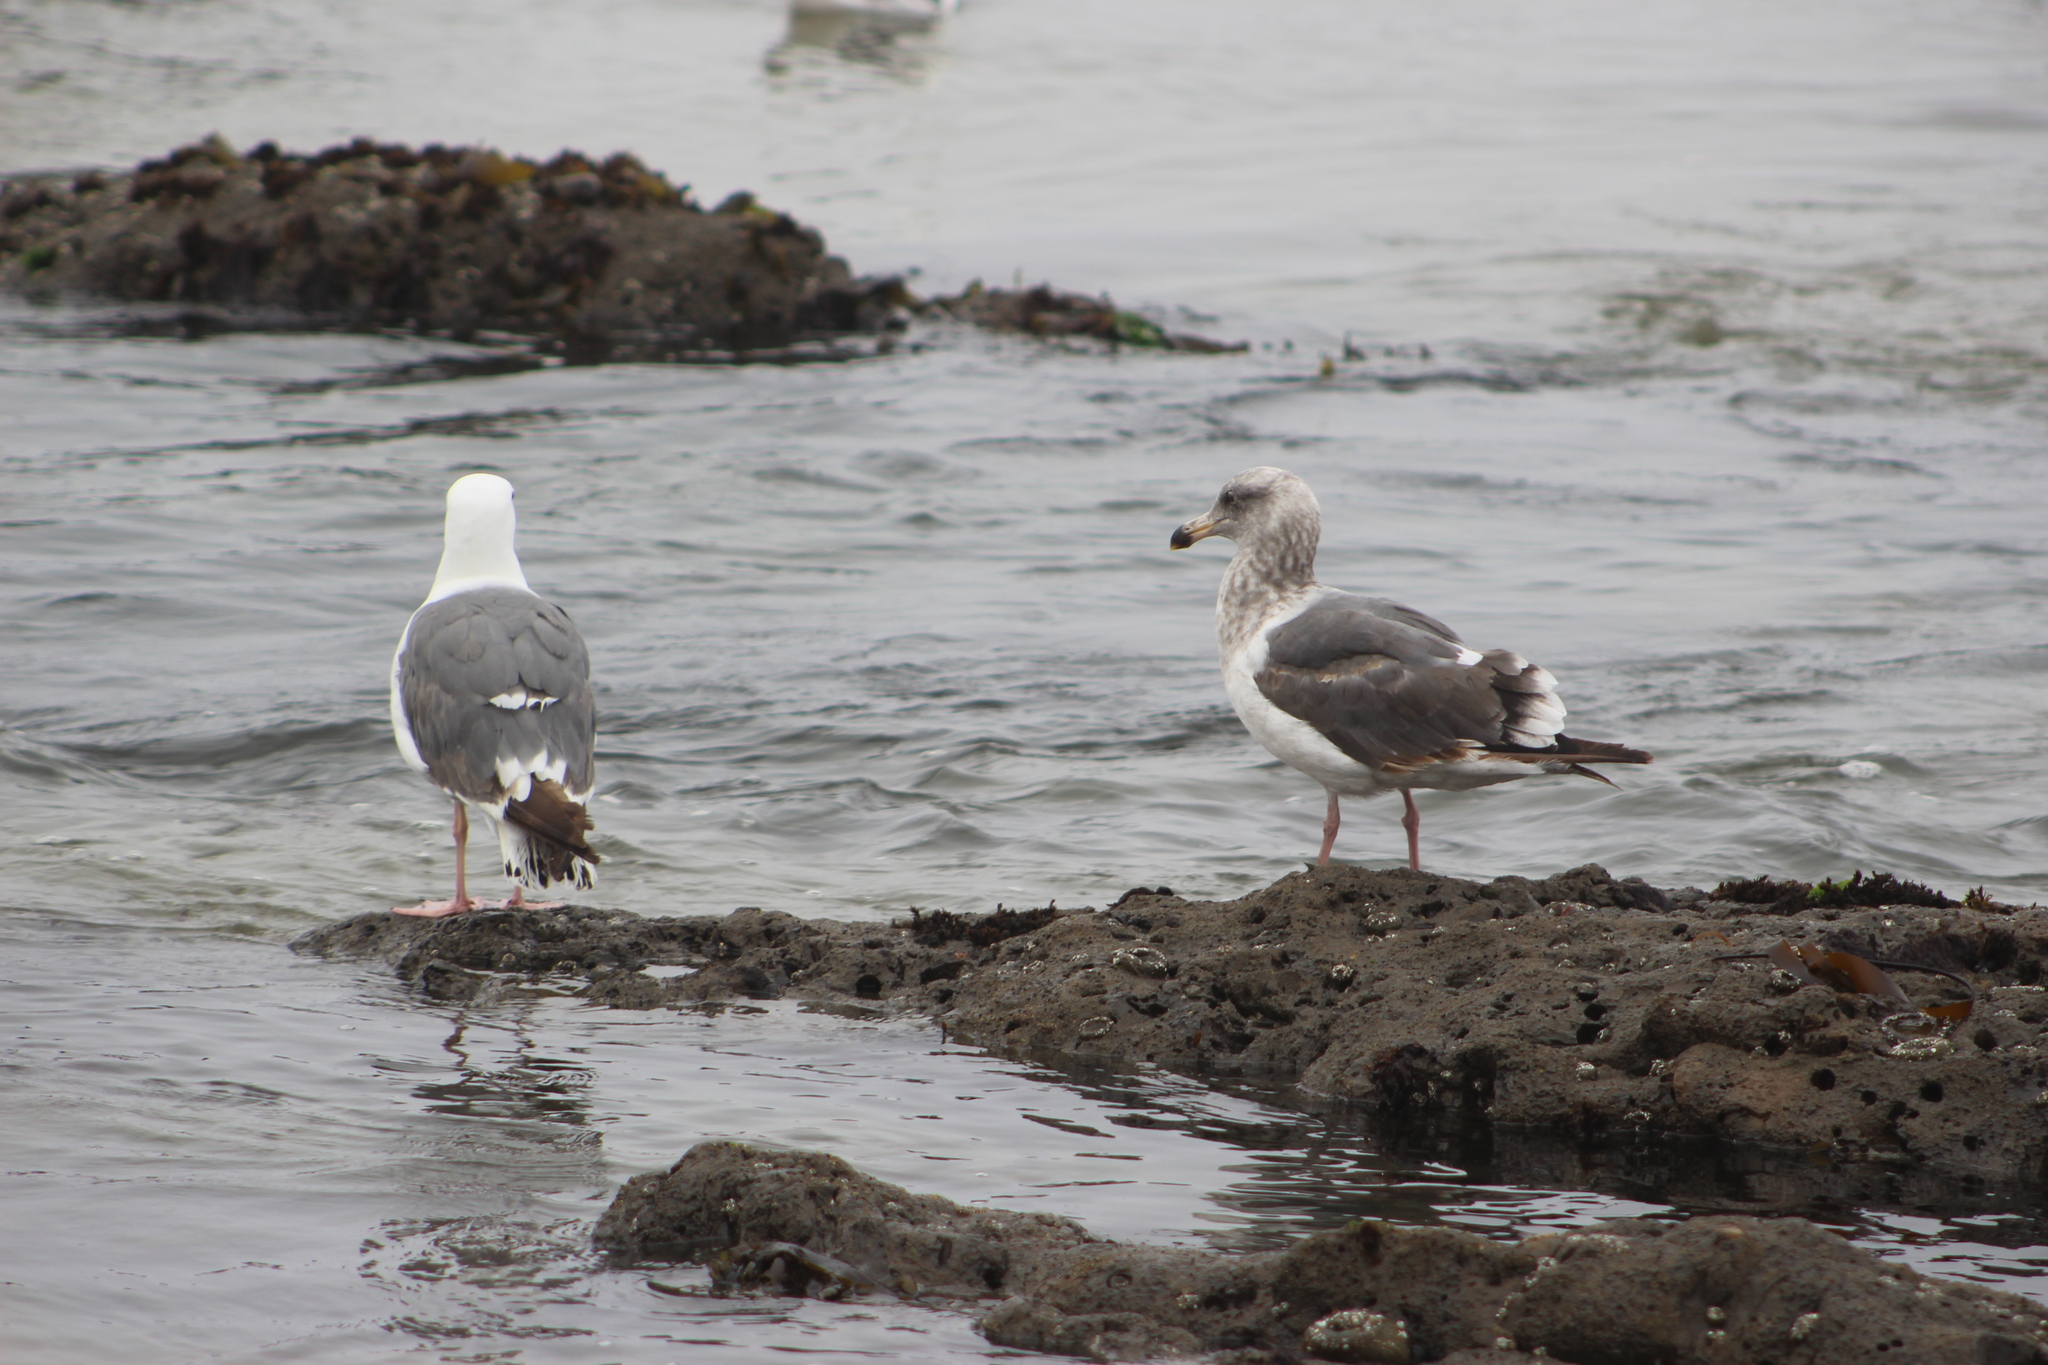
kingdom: Animalia
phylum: Chordata
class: Aves
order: Charadriiformes
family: Laridae
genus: Larus
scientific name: Larus occidentalis
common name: Western gull
